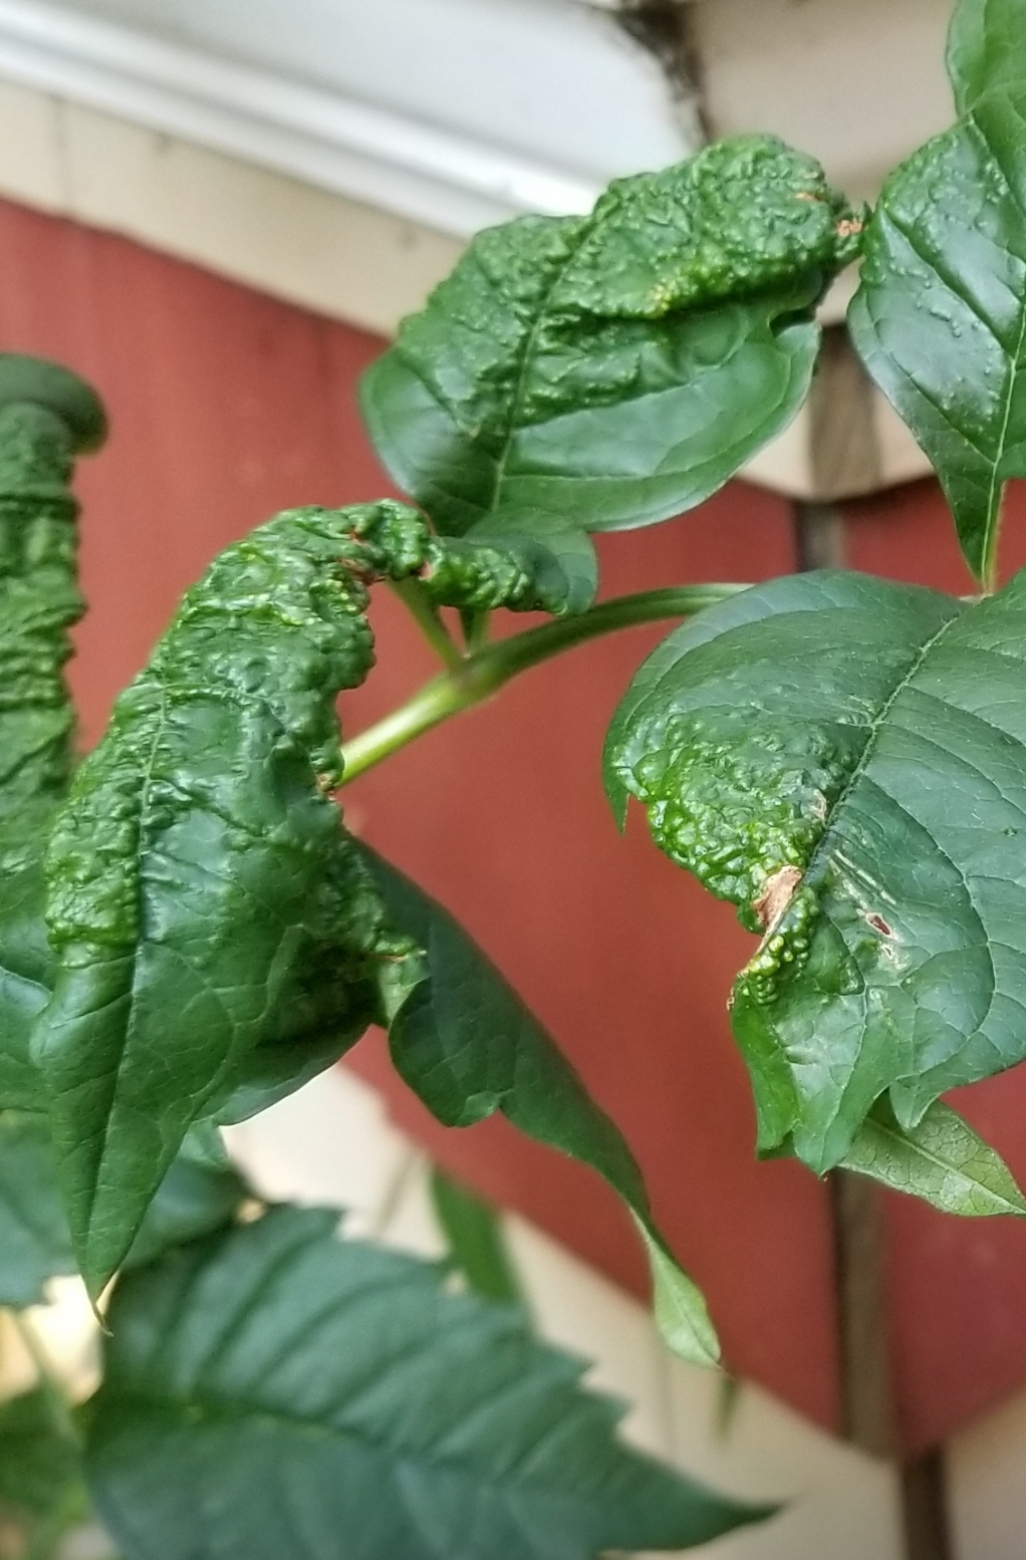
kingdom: Plantae
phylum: Tracheophyta
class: Magnoliopsida
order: Lamiales
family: Bignoniaceae
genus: Campsis
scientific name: Campsis radicans
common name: Trumpet-creeper
